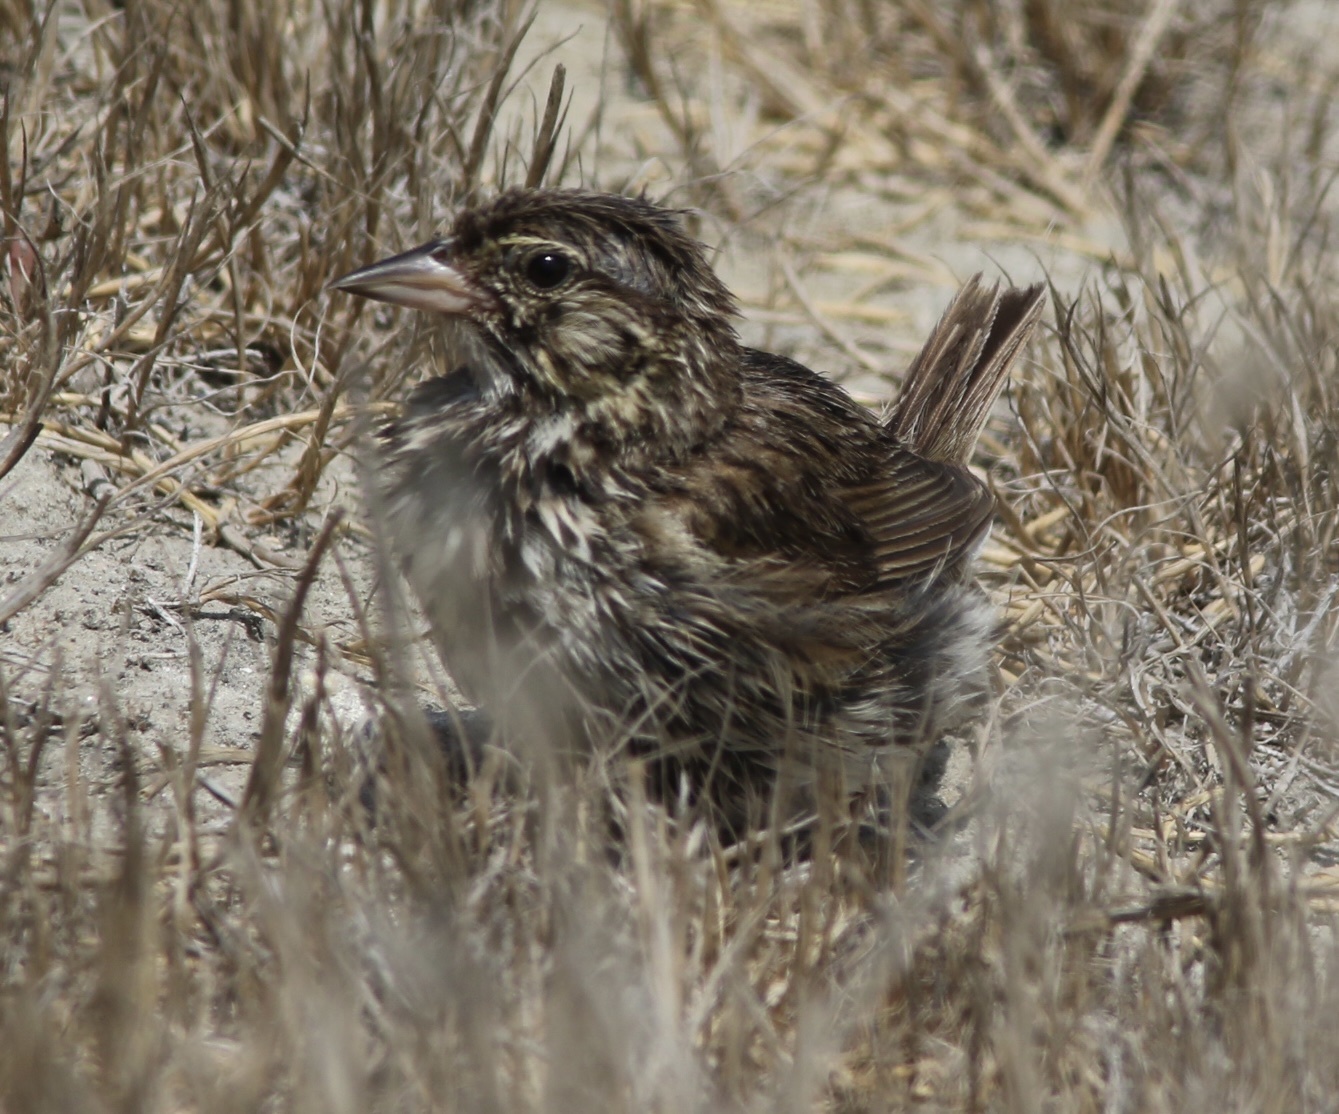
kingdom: Animalia
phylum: Chordata
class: Aves
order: Passeriformes
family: Passerellidae
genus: Passerculus
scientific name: Passerculus sandwichensis
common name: Savannah sparrow
